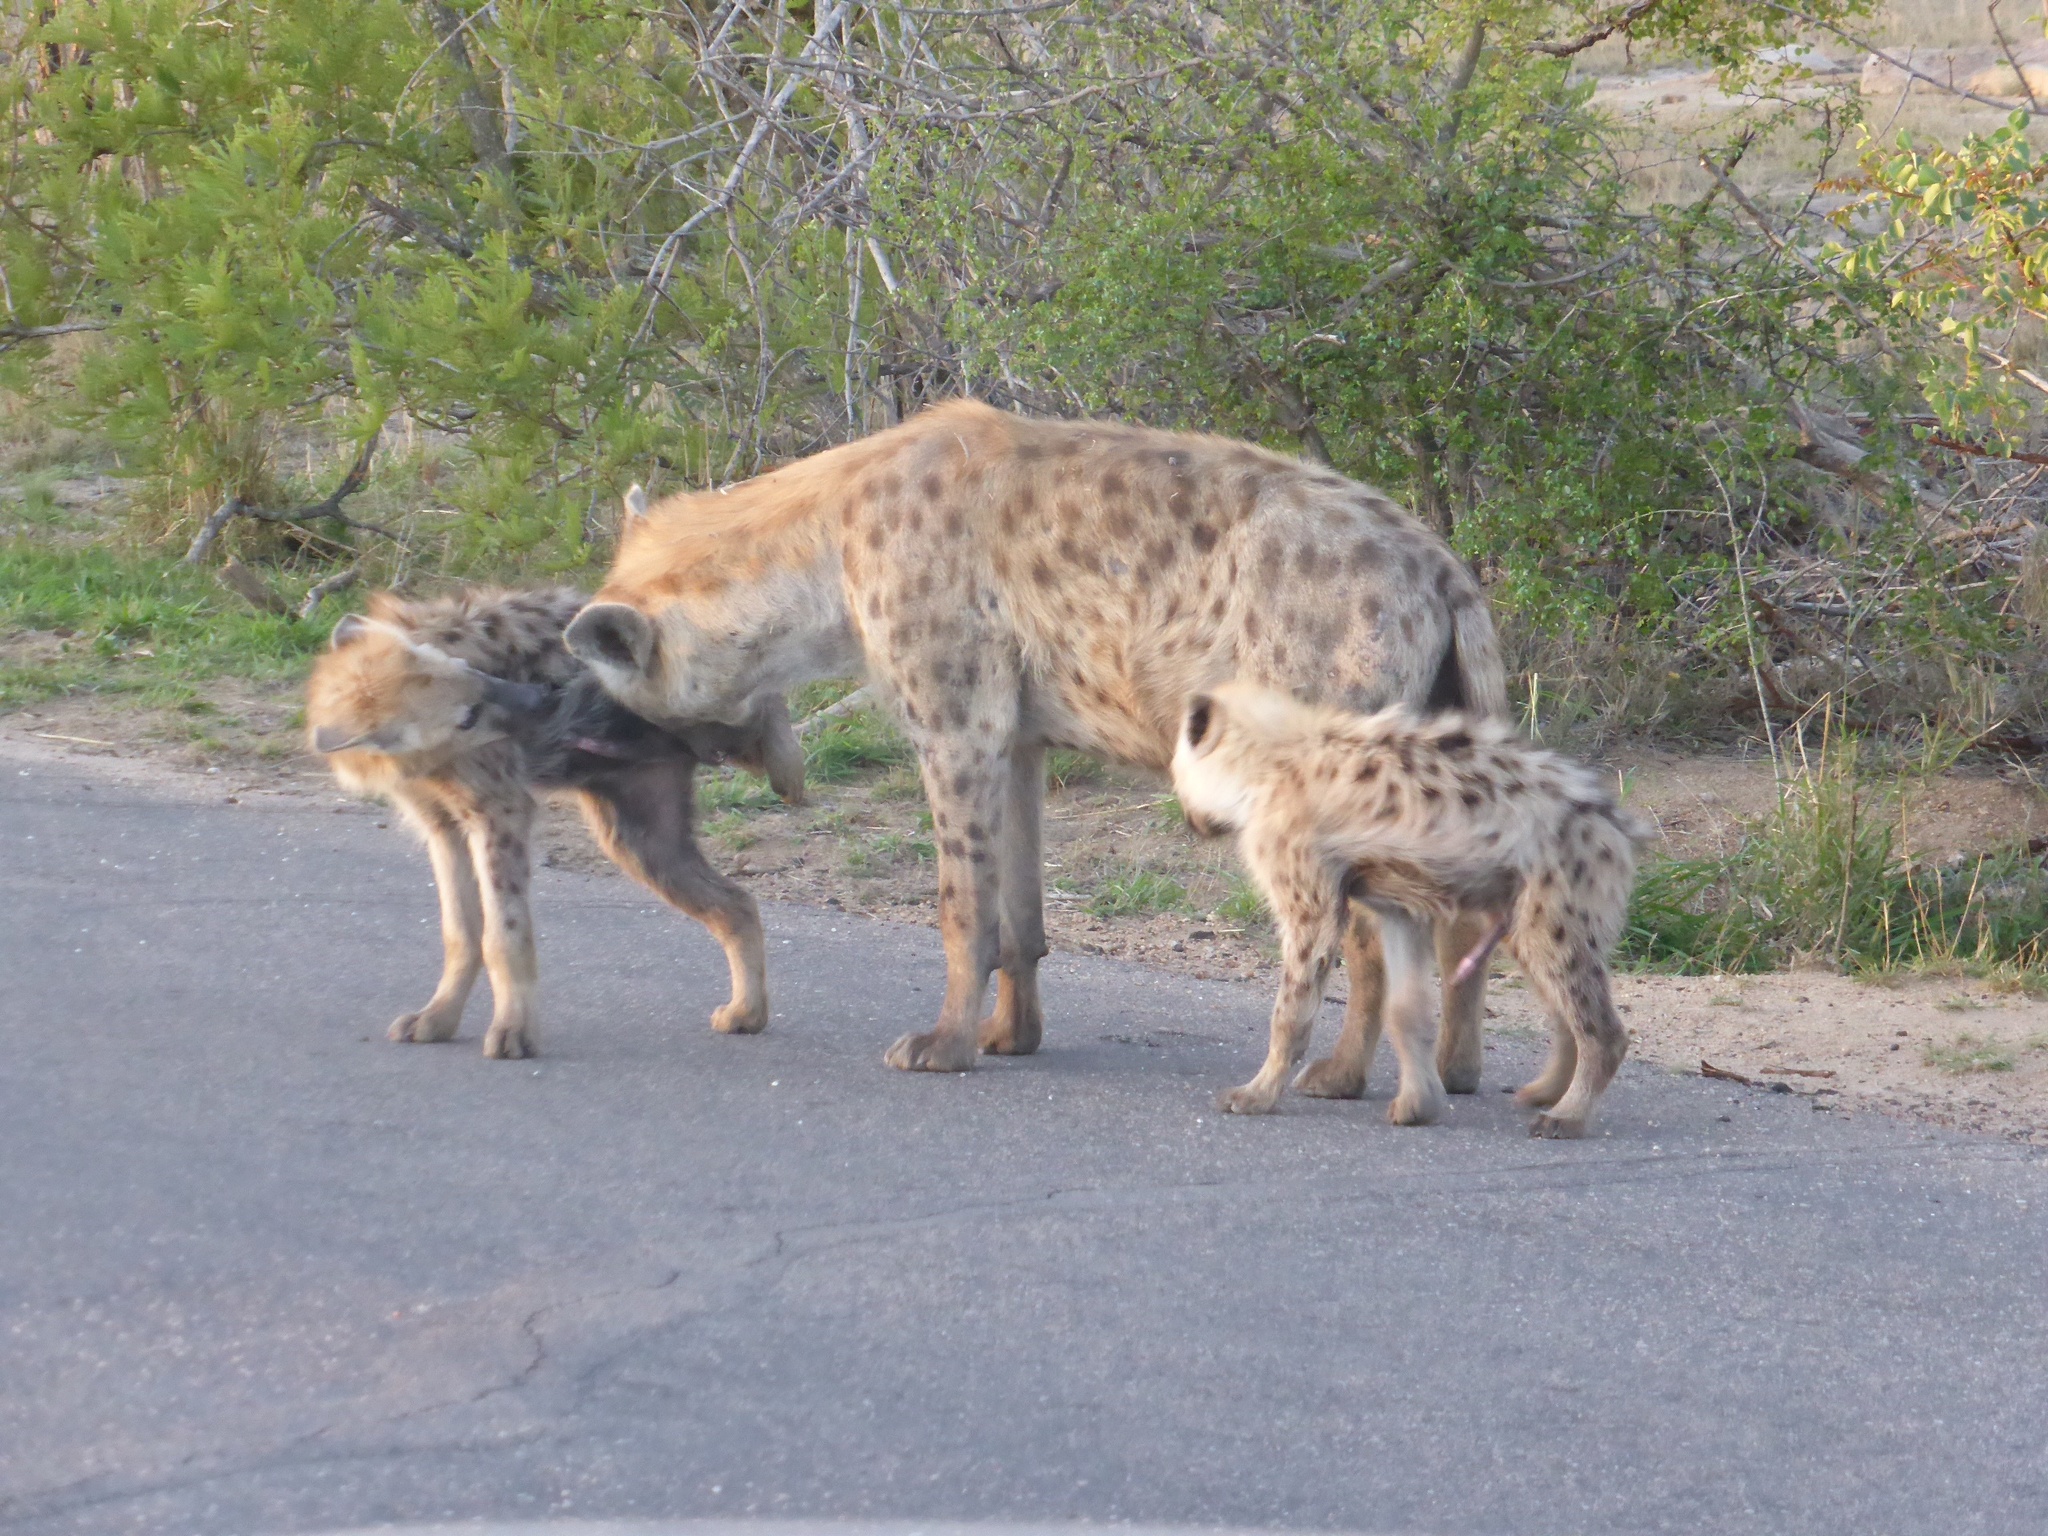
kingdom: Animalia
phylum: Chordata
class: Mammalia
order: Carnivora
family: Hyaenidae
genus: Crocuta
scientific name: Crocuta crocuta
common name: Spotted hyaena
